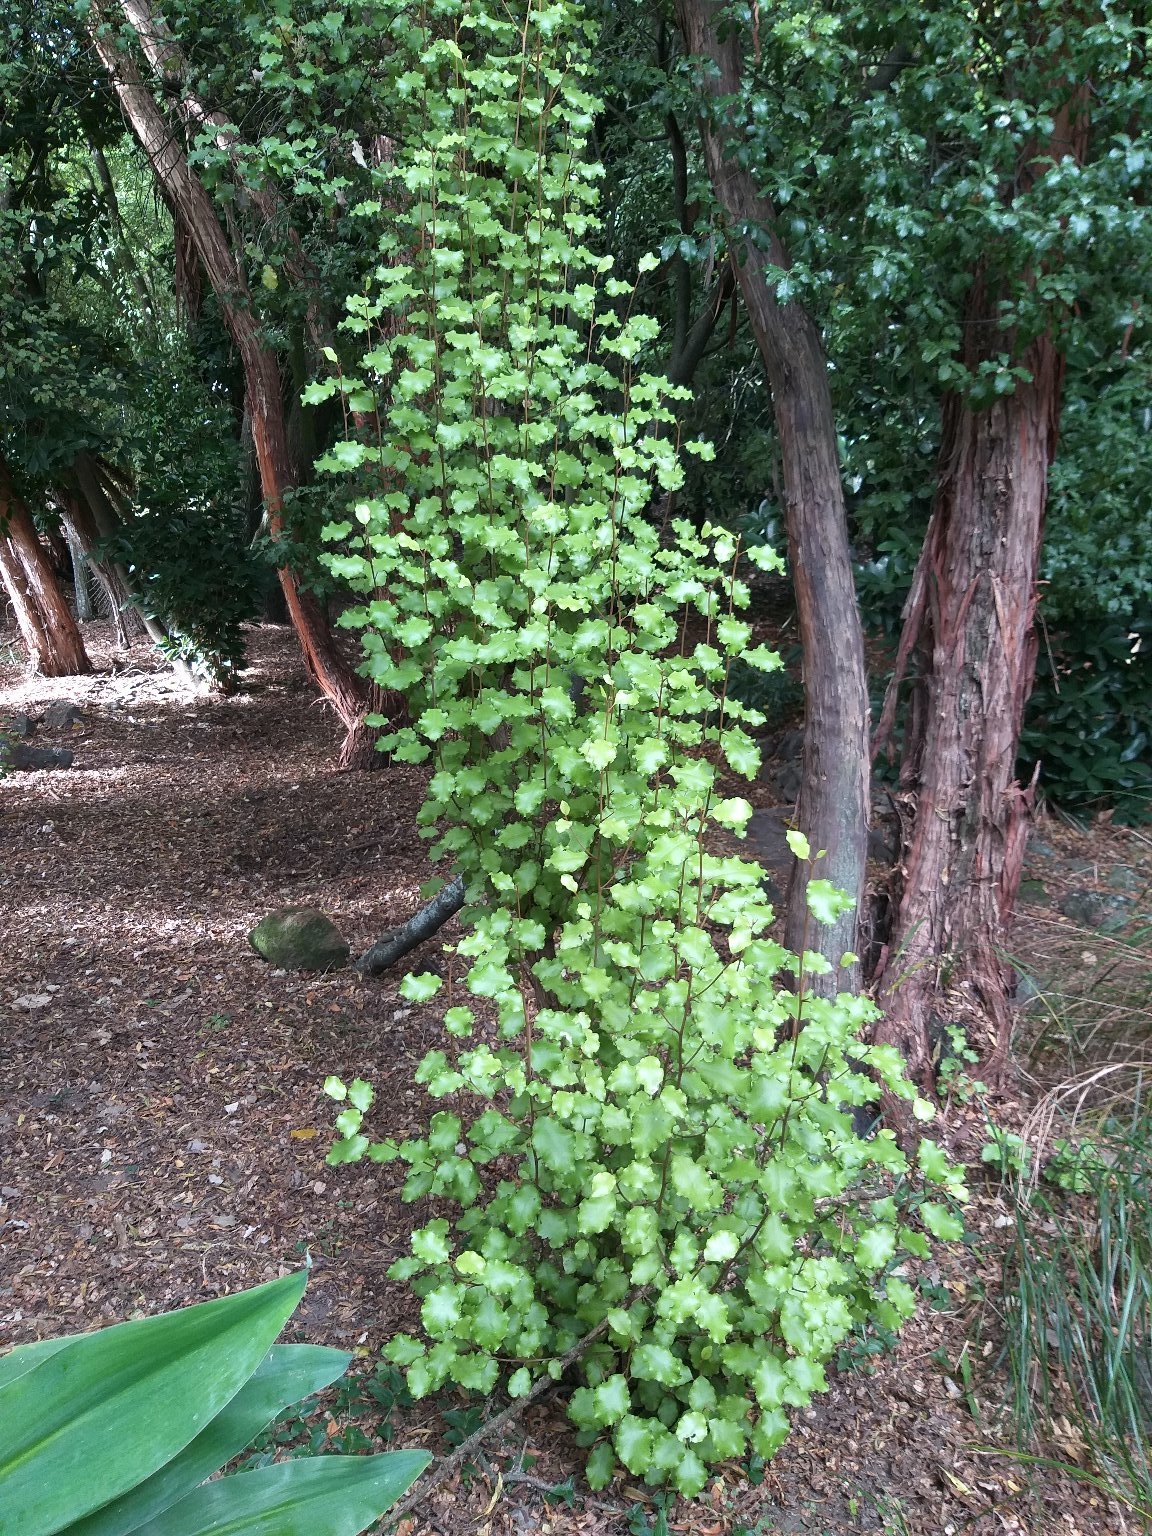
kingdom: Plantae
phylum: Tracheophyta
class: Magnoliopsida
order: Asterales
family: Asteraceae
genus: Olearia
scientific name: Olearia paniculata
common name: Akiraho
